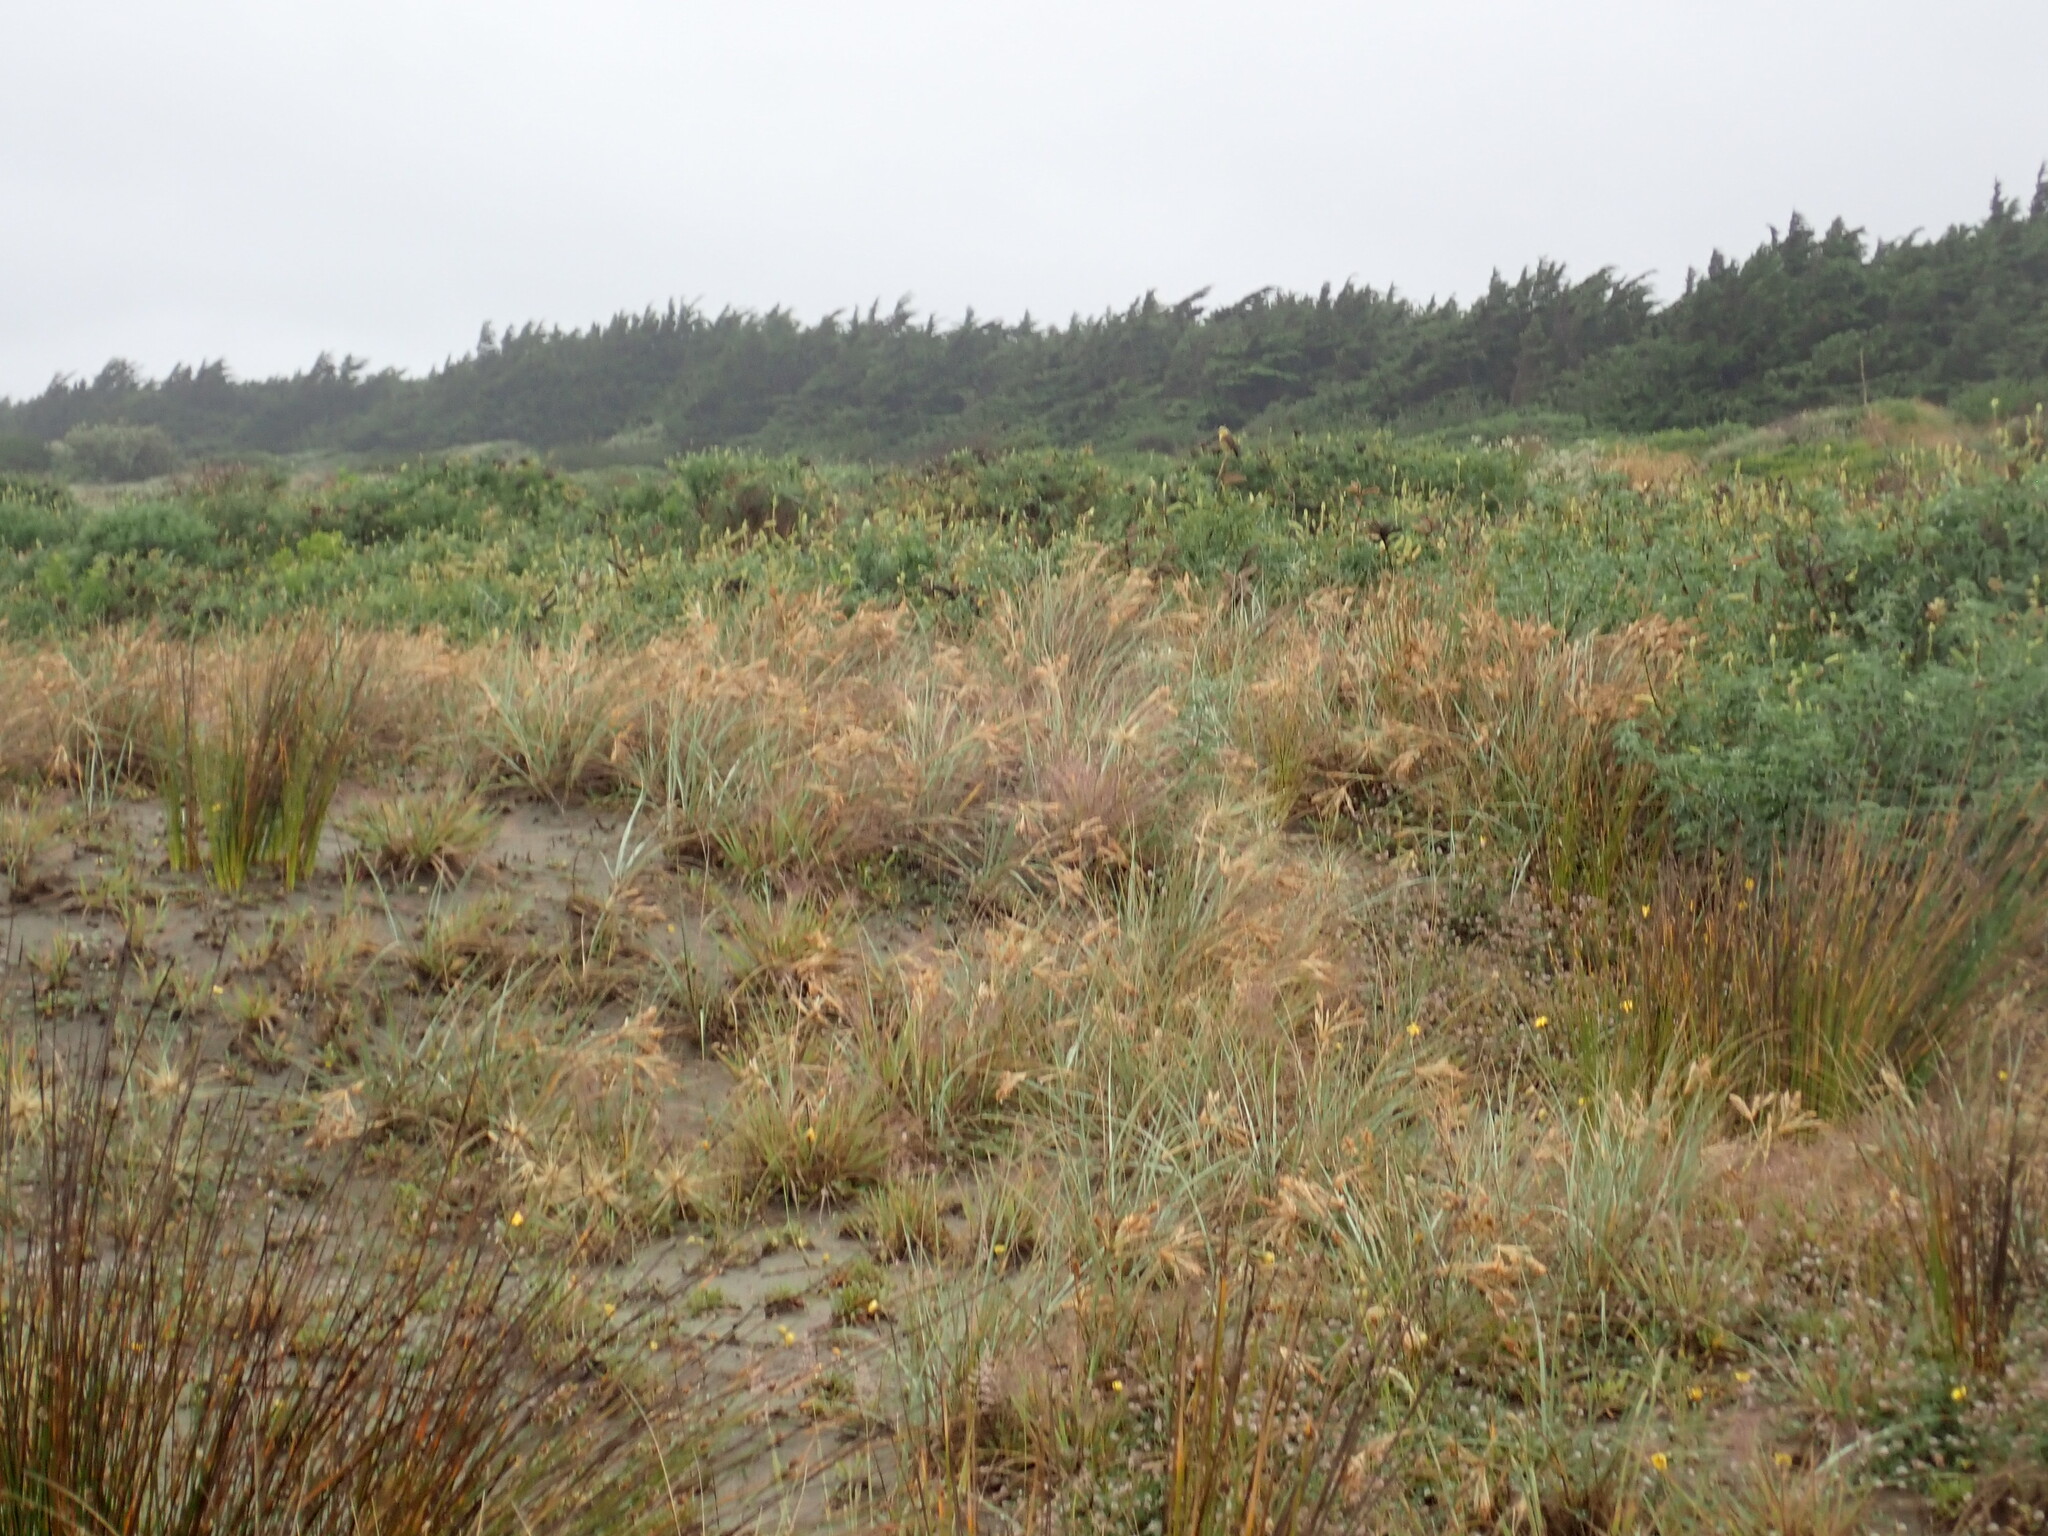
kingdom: Animalia
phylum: Chordata
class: Aves
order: Passeriformes
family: Emberizidae
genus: Emberiza
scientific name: Emberiza citrinella
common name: Yellowhammer
